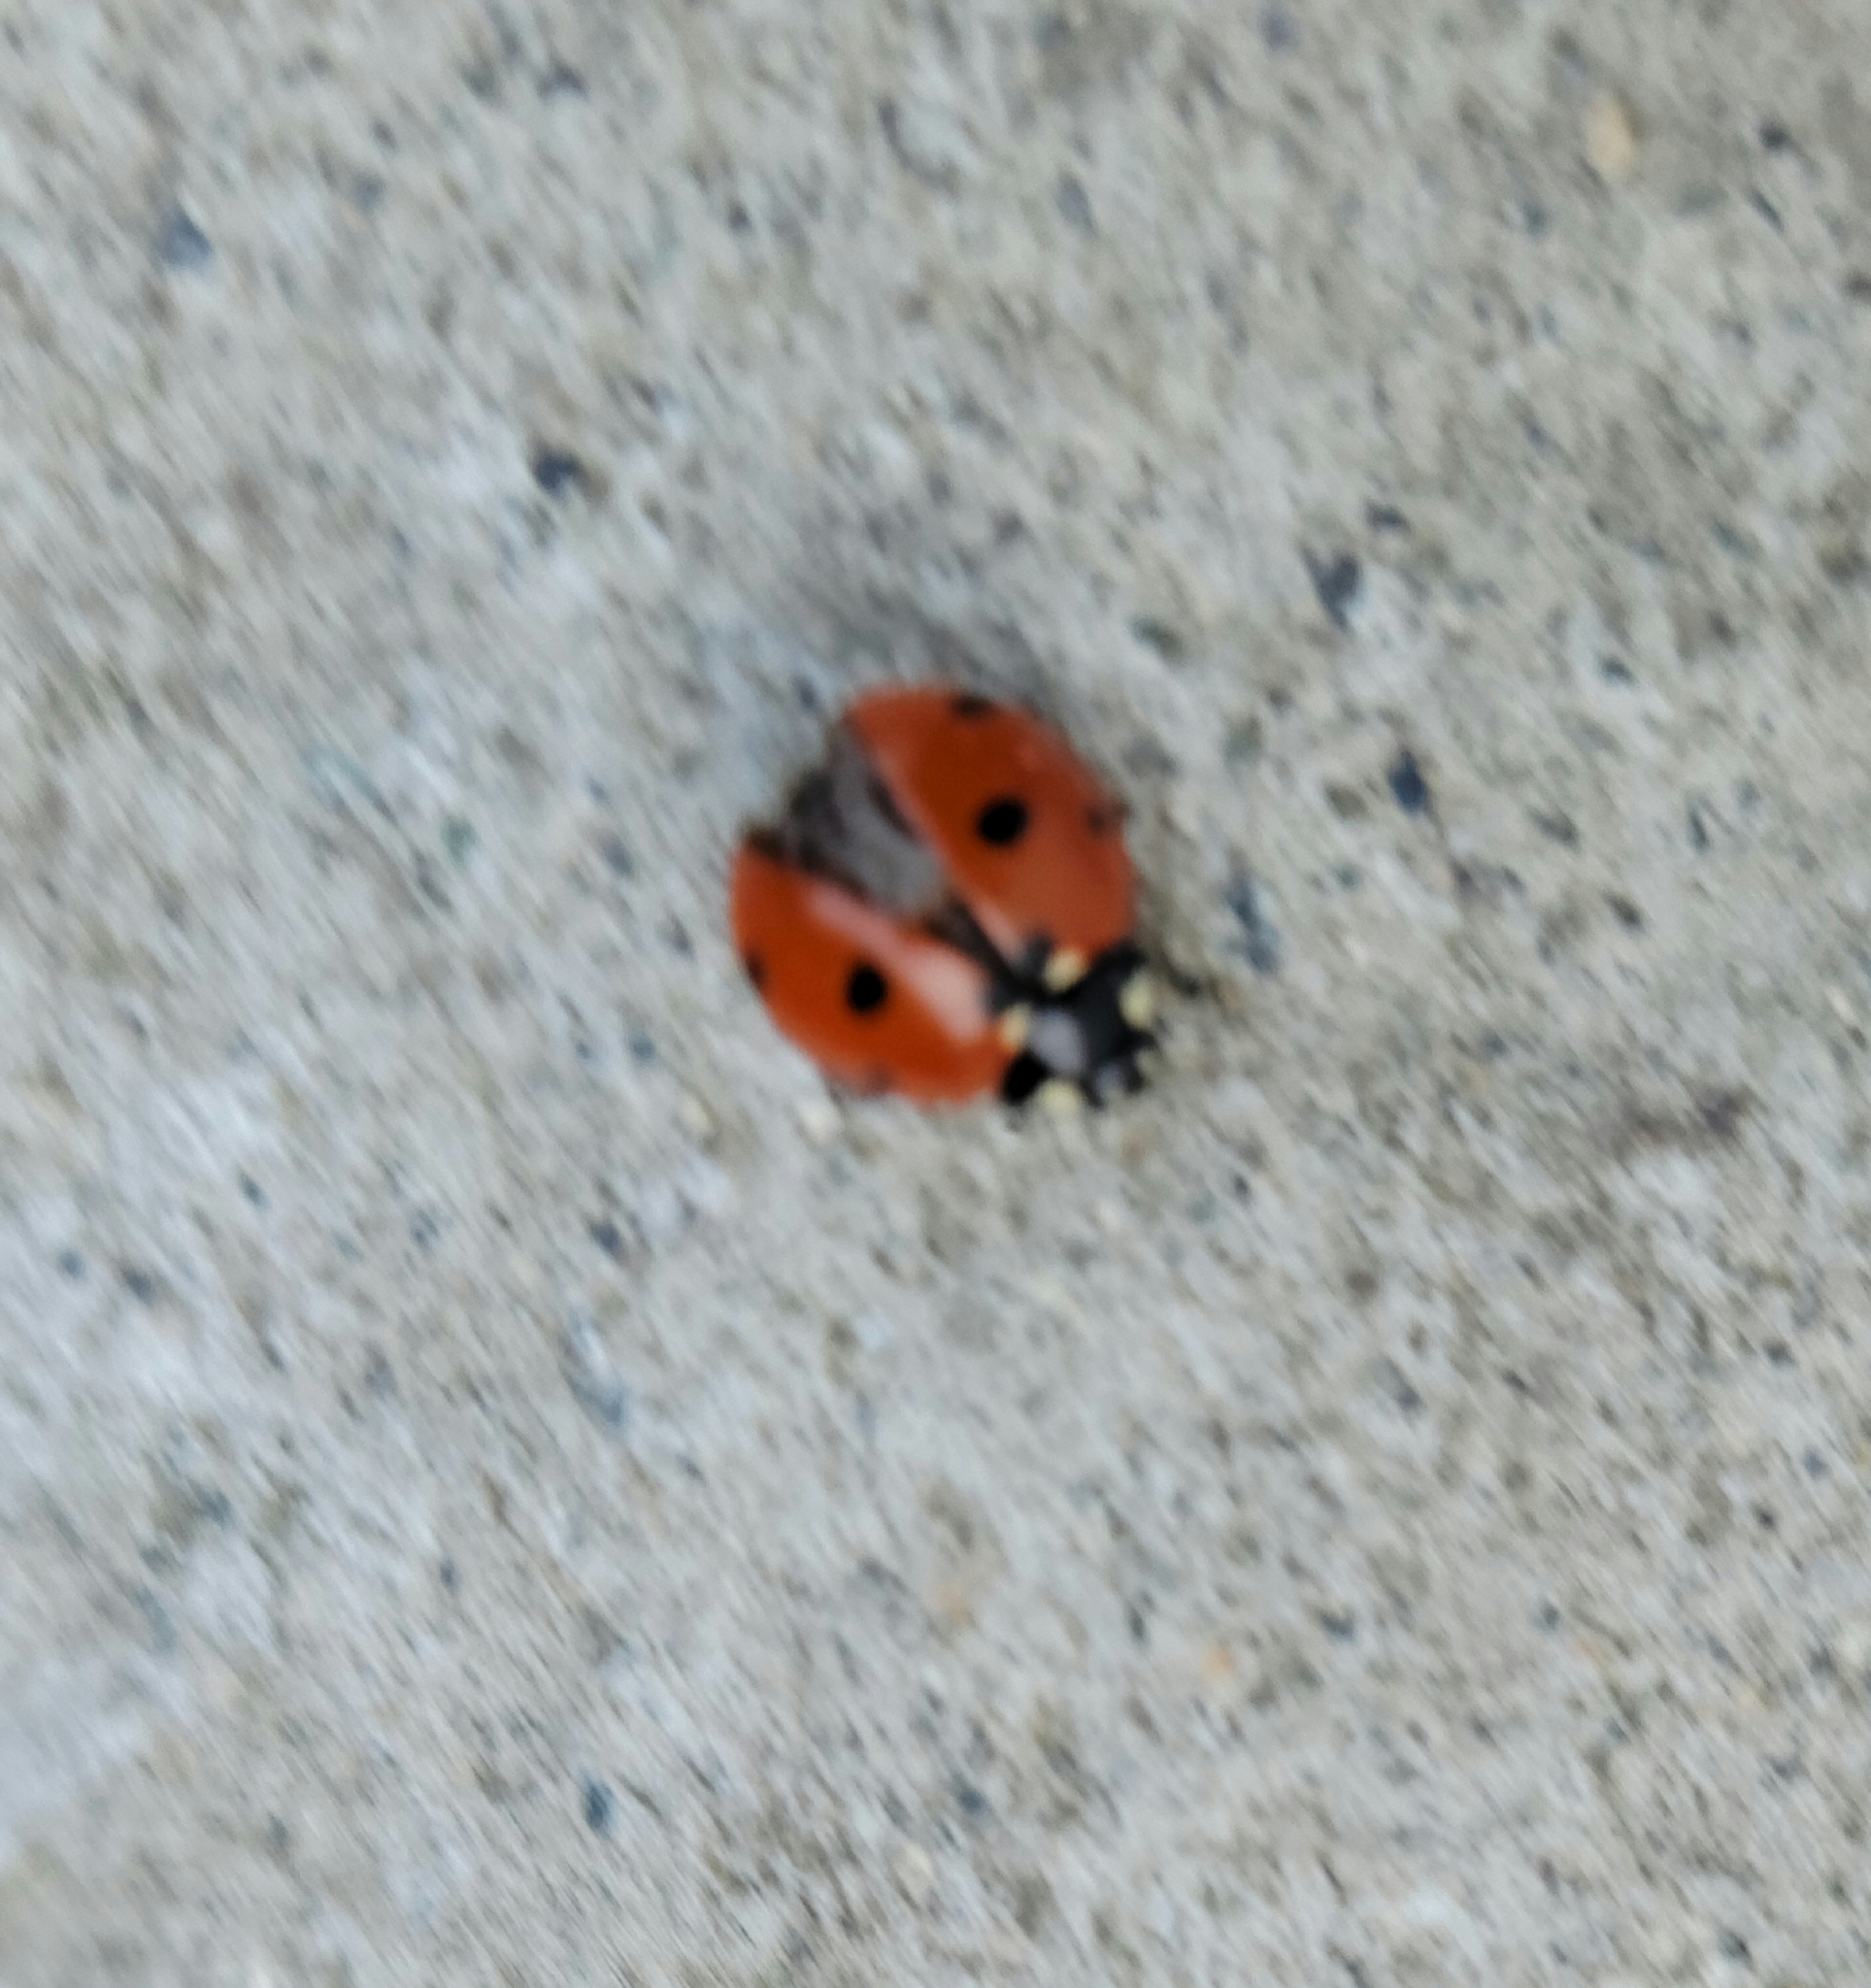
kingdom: Animalia
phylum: Arthropoda
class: Insecta
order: Coleoptera
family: Coccinellidae
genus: Coccinella
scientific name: Coccinella septempunctata
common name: Sevenspotted lady beetle
